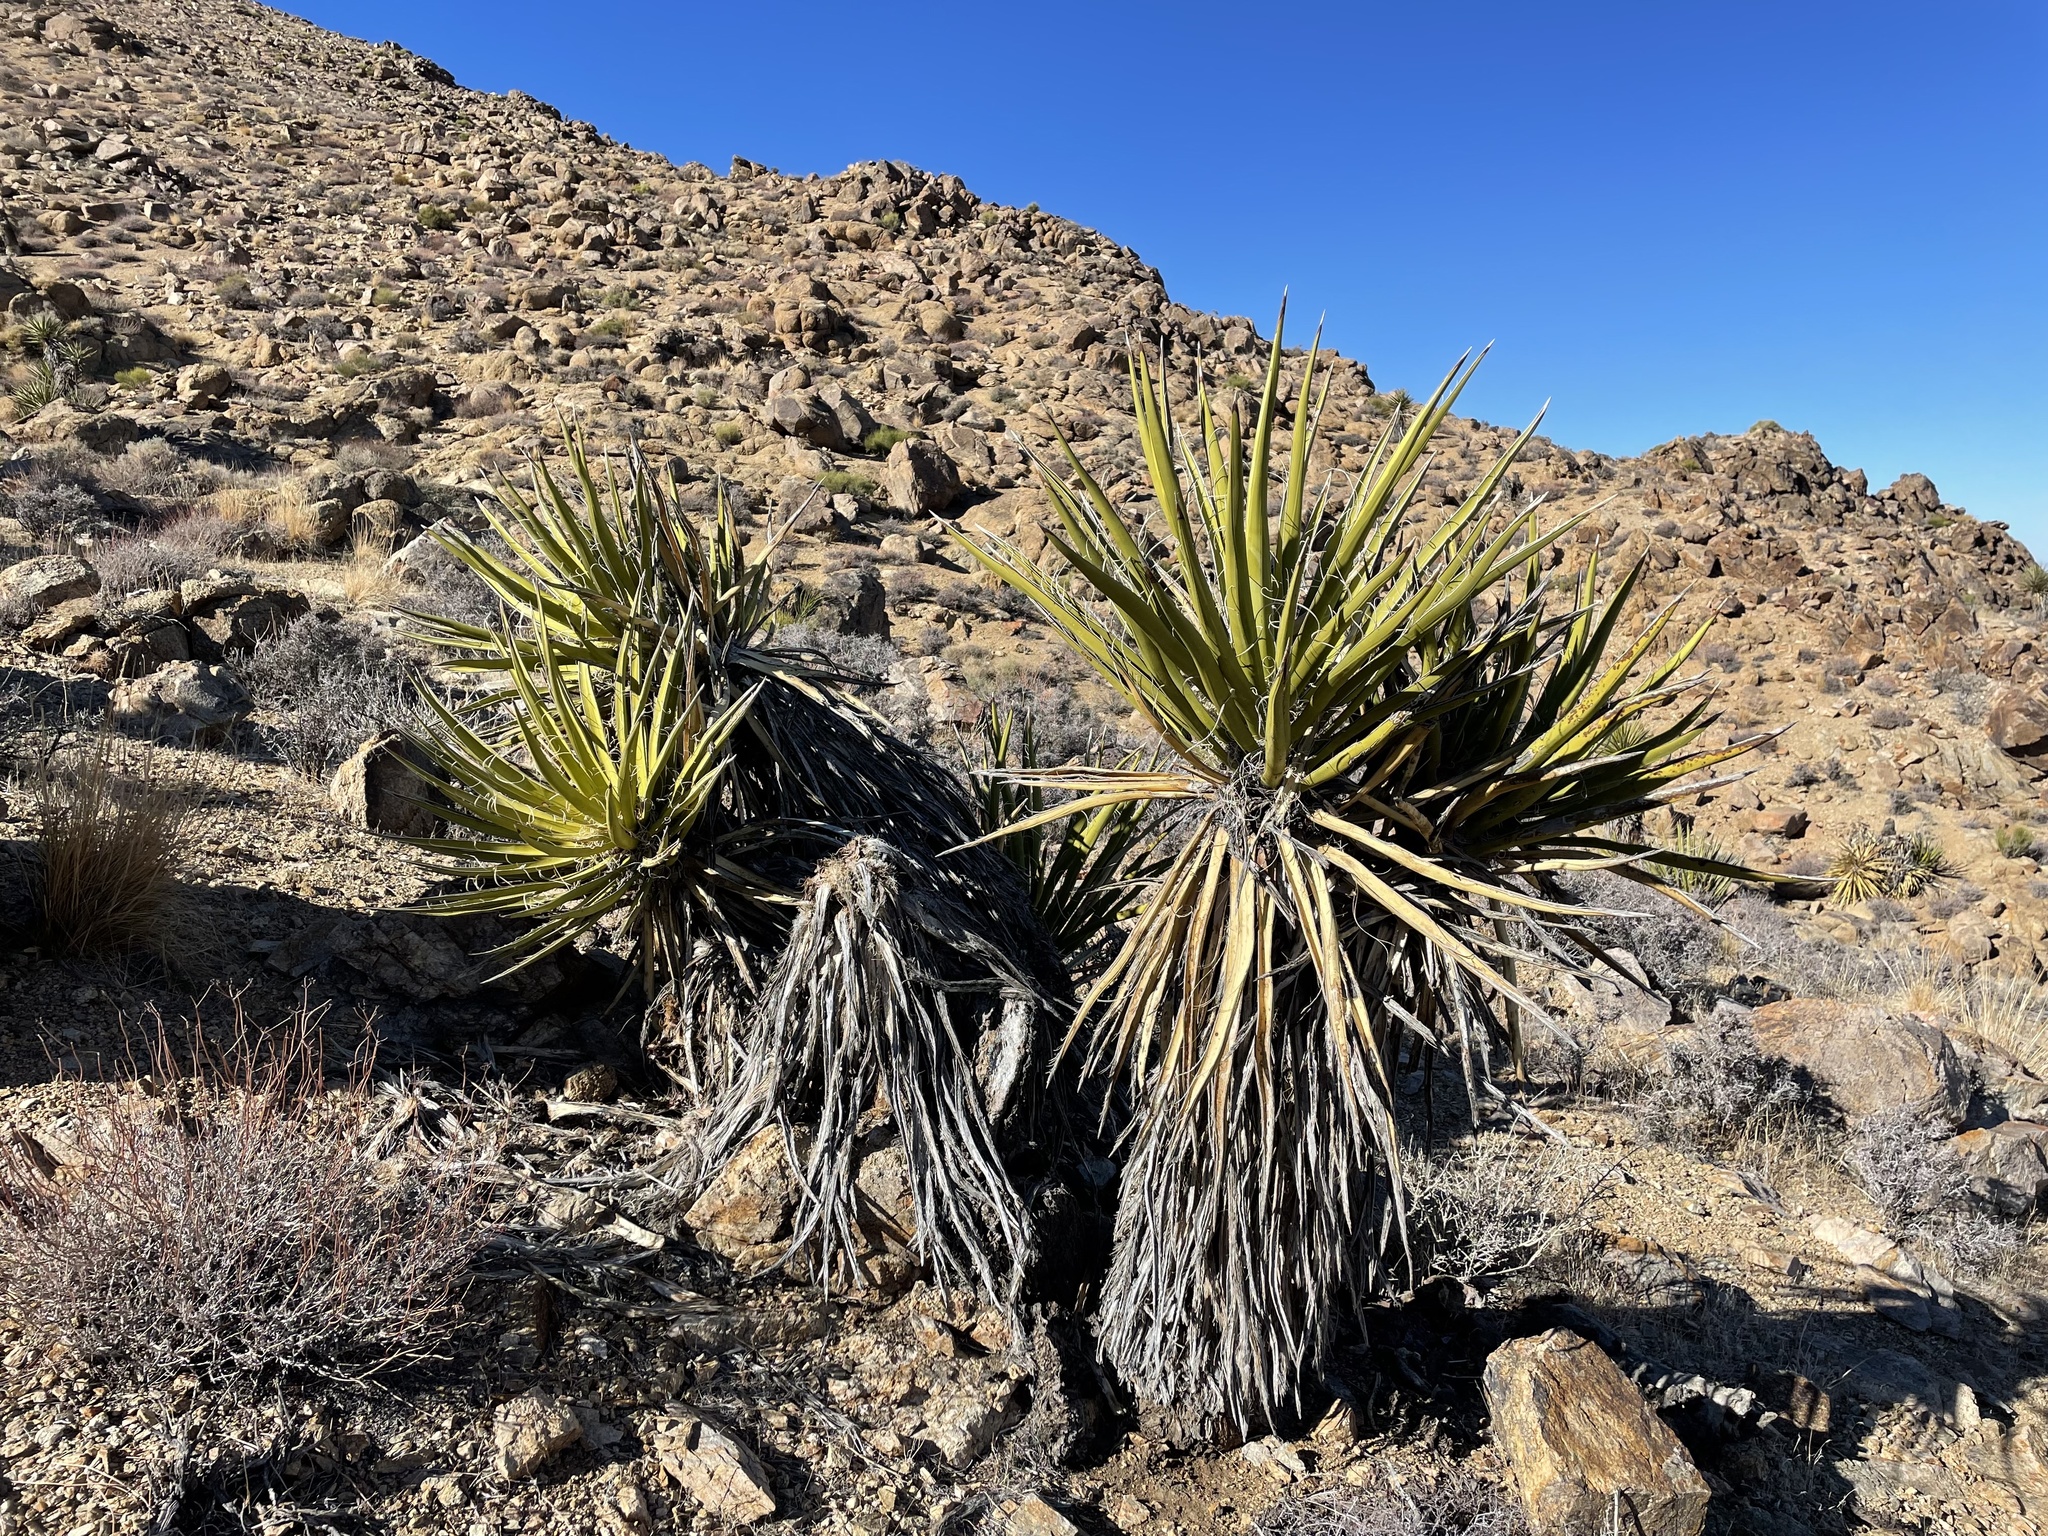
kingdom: Plantae
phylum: Tracheophyta
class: Liliopsida
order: Asparagales
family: Asparagaceae
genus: Yucca
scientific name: Yucca schidigera
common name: Mojave yucca
